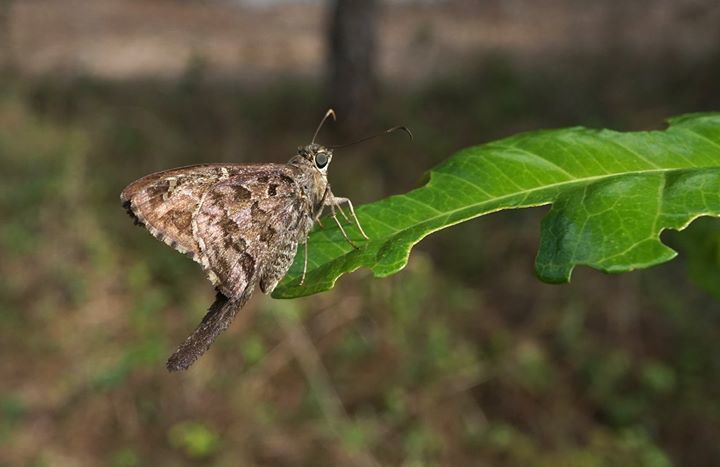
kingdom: Animalia
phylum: Arthropoda
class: Insecta
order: Lepidoptera
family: Hesperiidae
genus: Thorybes
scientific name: Thorybes
